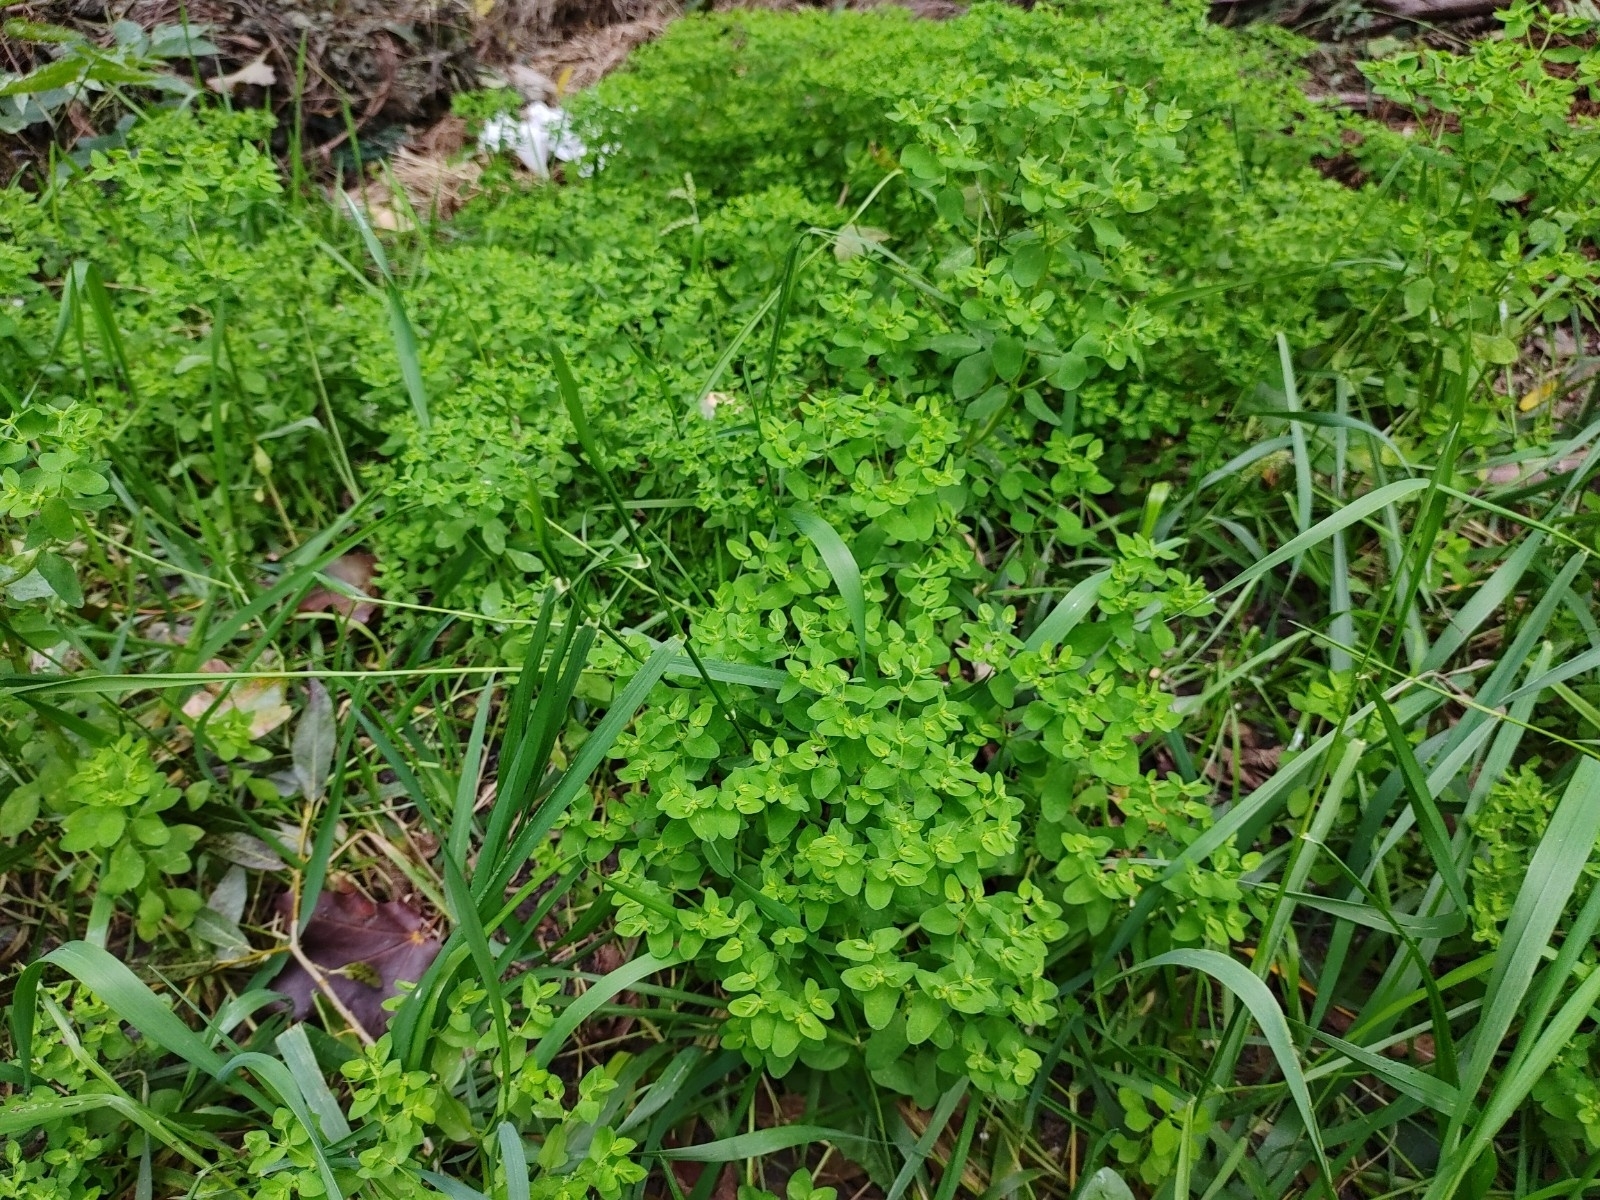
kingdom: Plantae
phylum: Tracheophyta
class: Magnoliopsida
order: Malpighiales
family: Euphorbiaceae
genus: Euphorbia
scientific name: Euphorbia peplus
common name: Petty spurge
